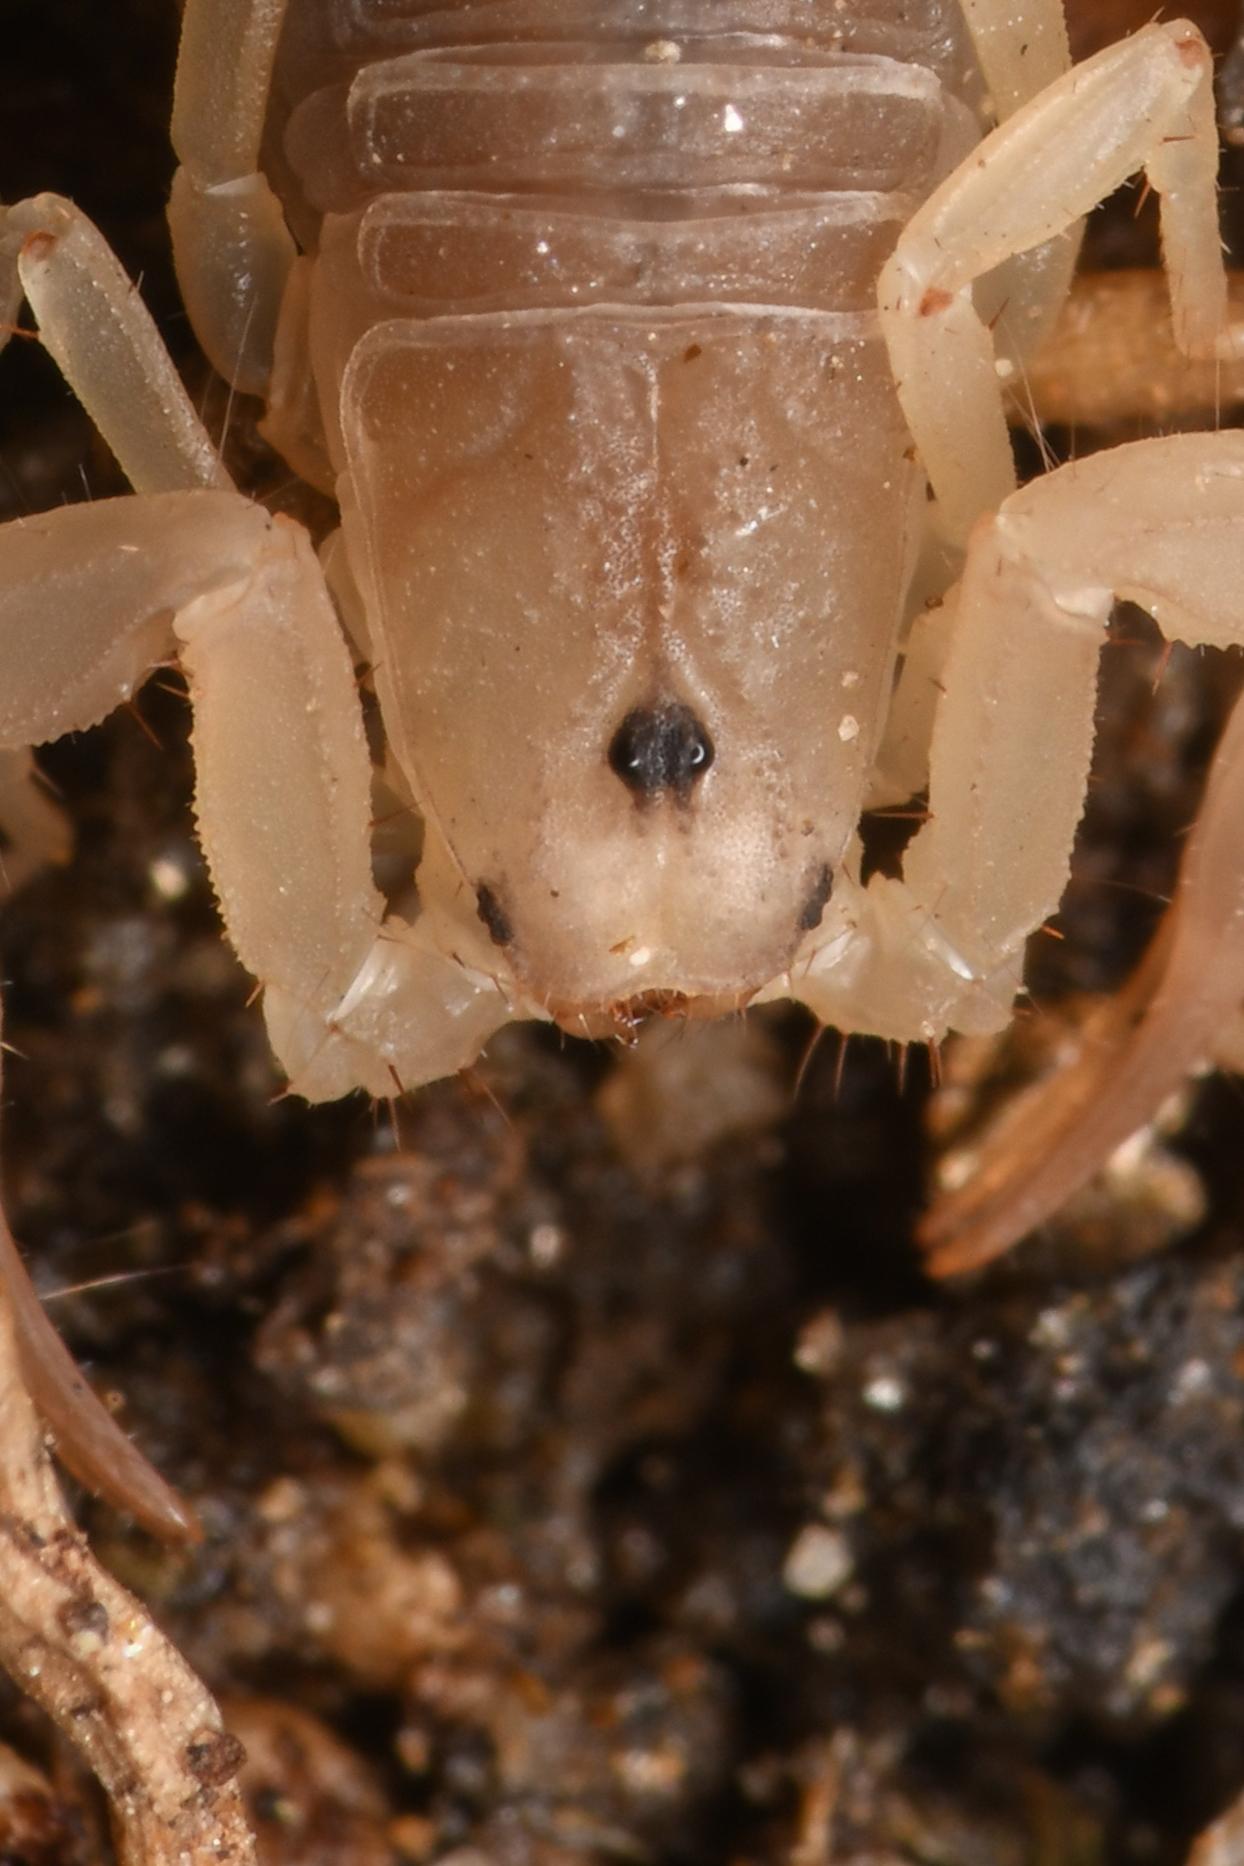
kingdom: Animalia
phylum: Arthropoda
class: Arachnida
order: Scorpiones
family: Vaejovidae
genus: Kochius
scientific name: Kochius hirsuticauda
